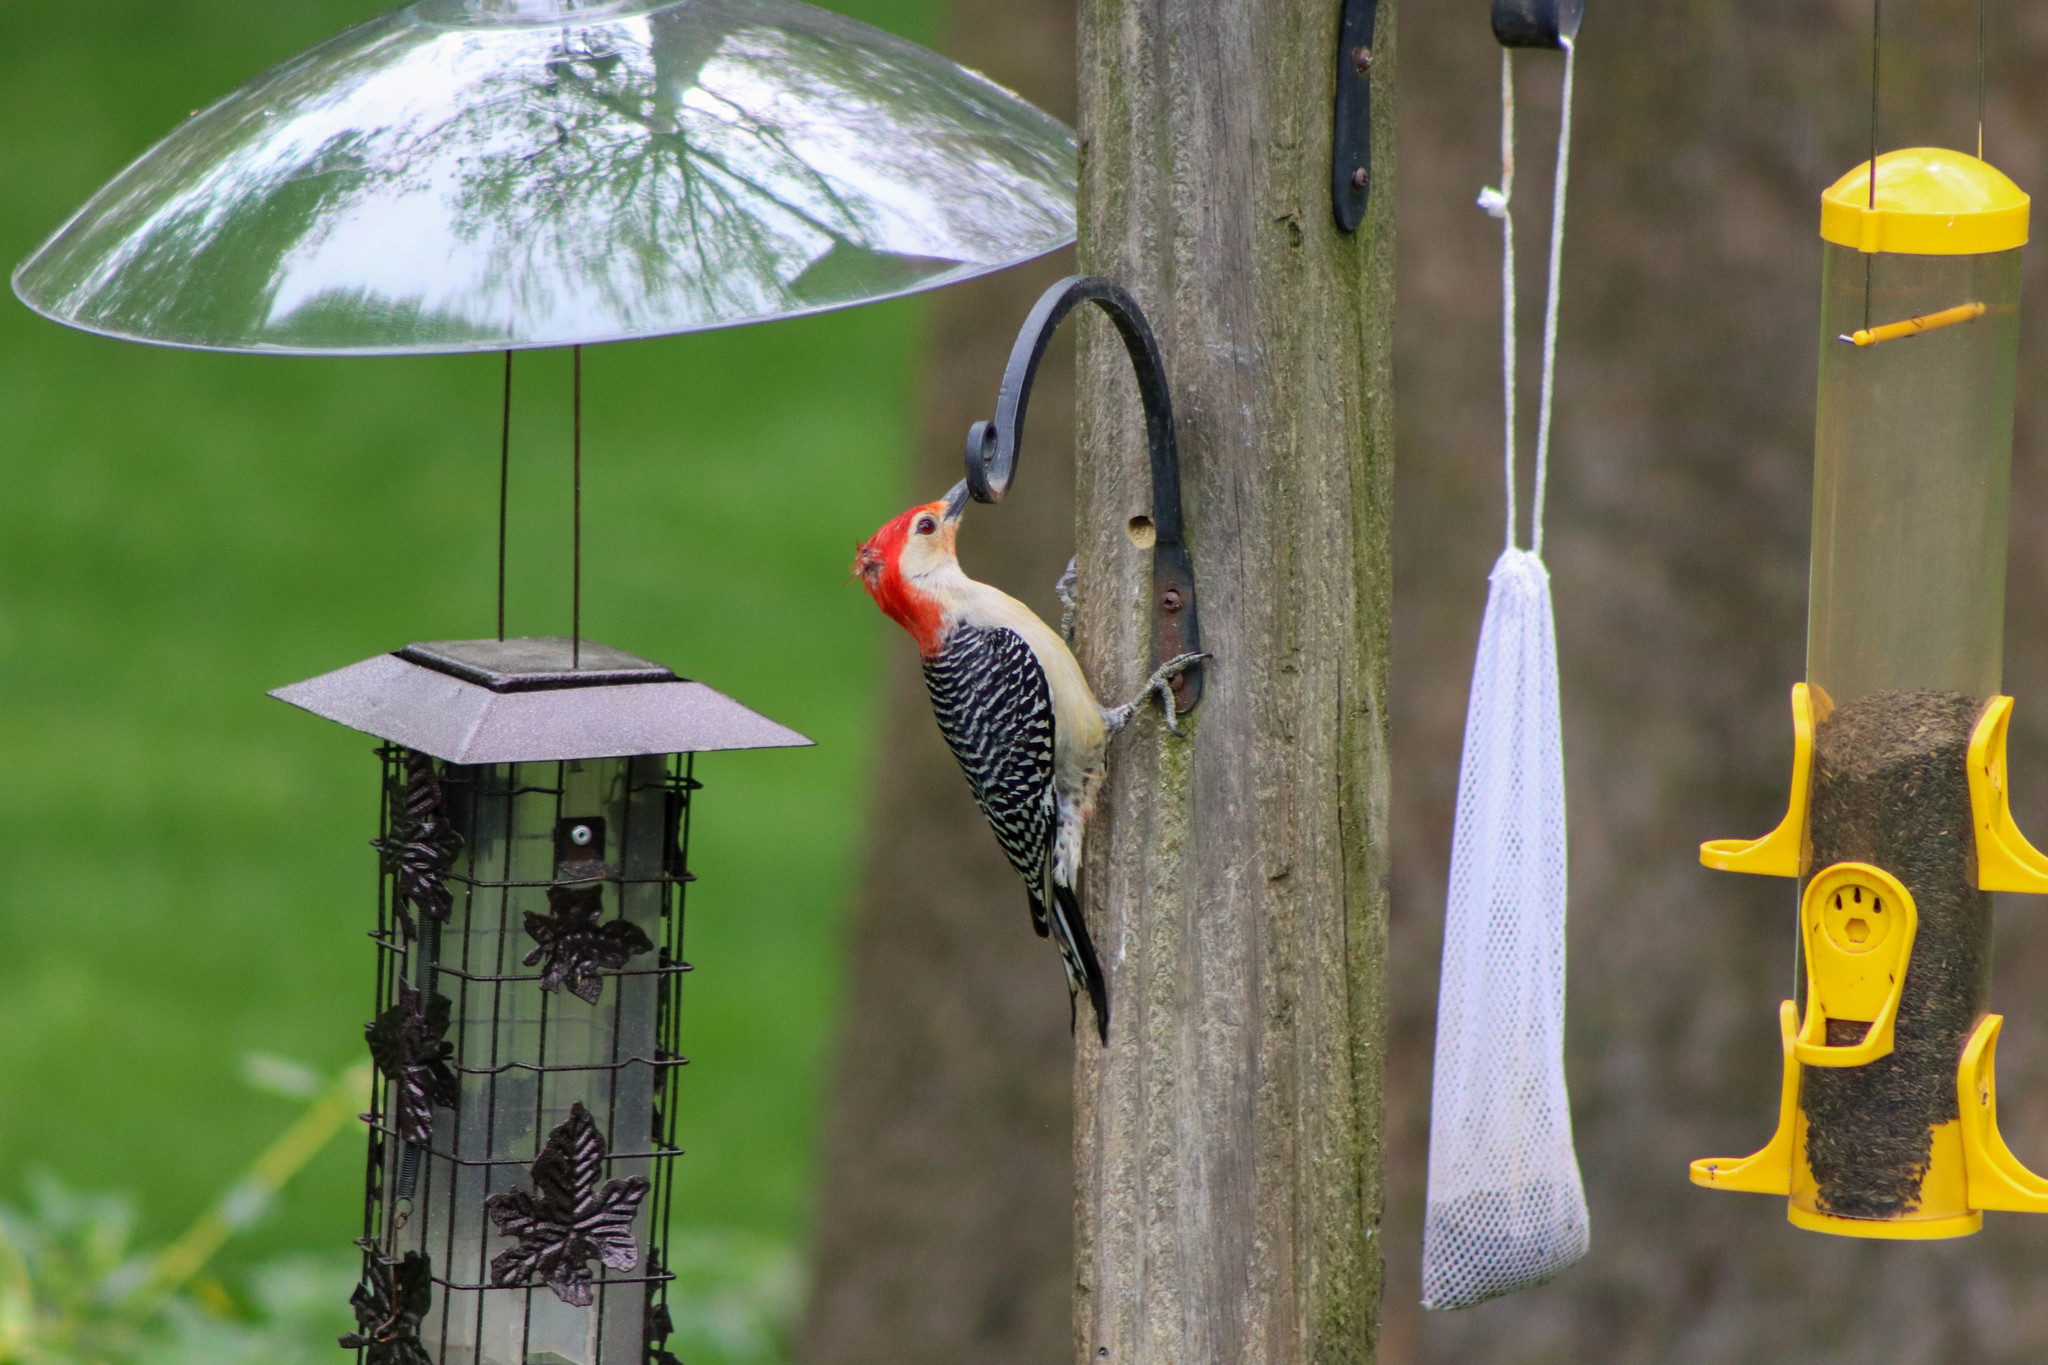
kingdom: Animalia
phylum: Chordata
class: Aves
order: Piciformes
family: Picidae
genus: Melanerpes
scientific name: Melanerpes carolinus
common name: Red-bellied woodpecker
